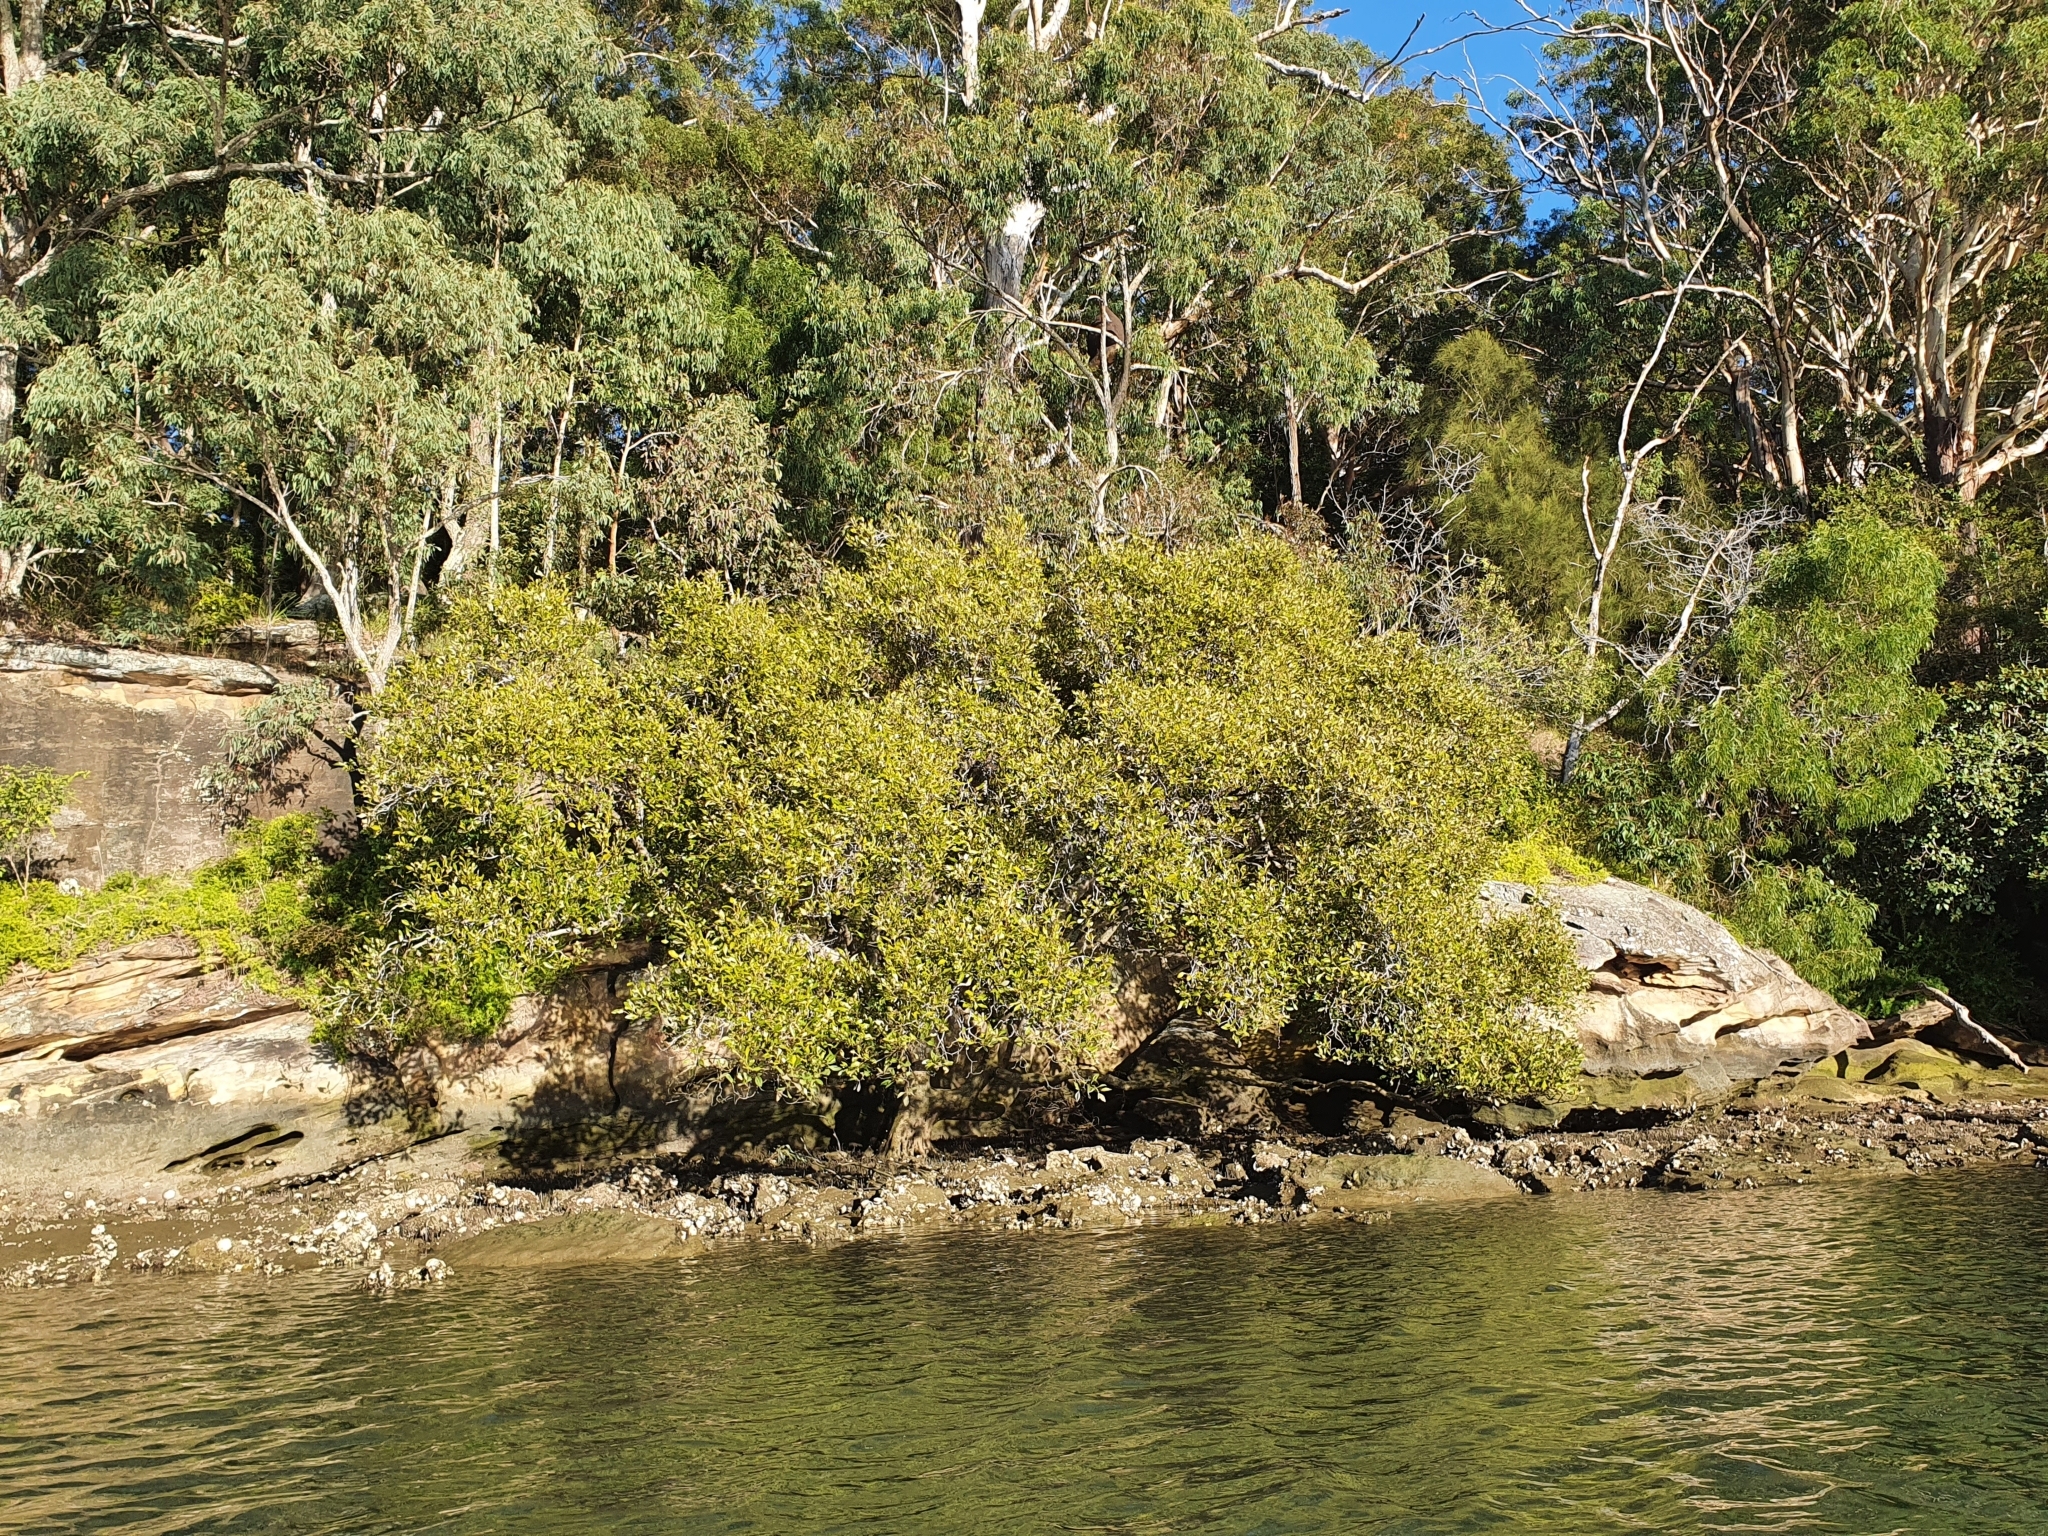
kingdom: Plantae
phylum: Tracheophyta
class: Magnoliopsida
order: Lamiales
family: Acanthaceae
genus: Avicennia
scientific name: Avicennia marina
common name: Gray mangrove
